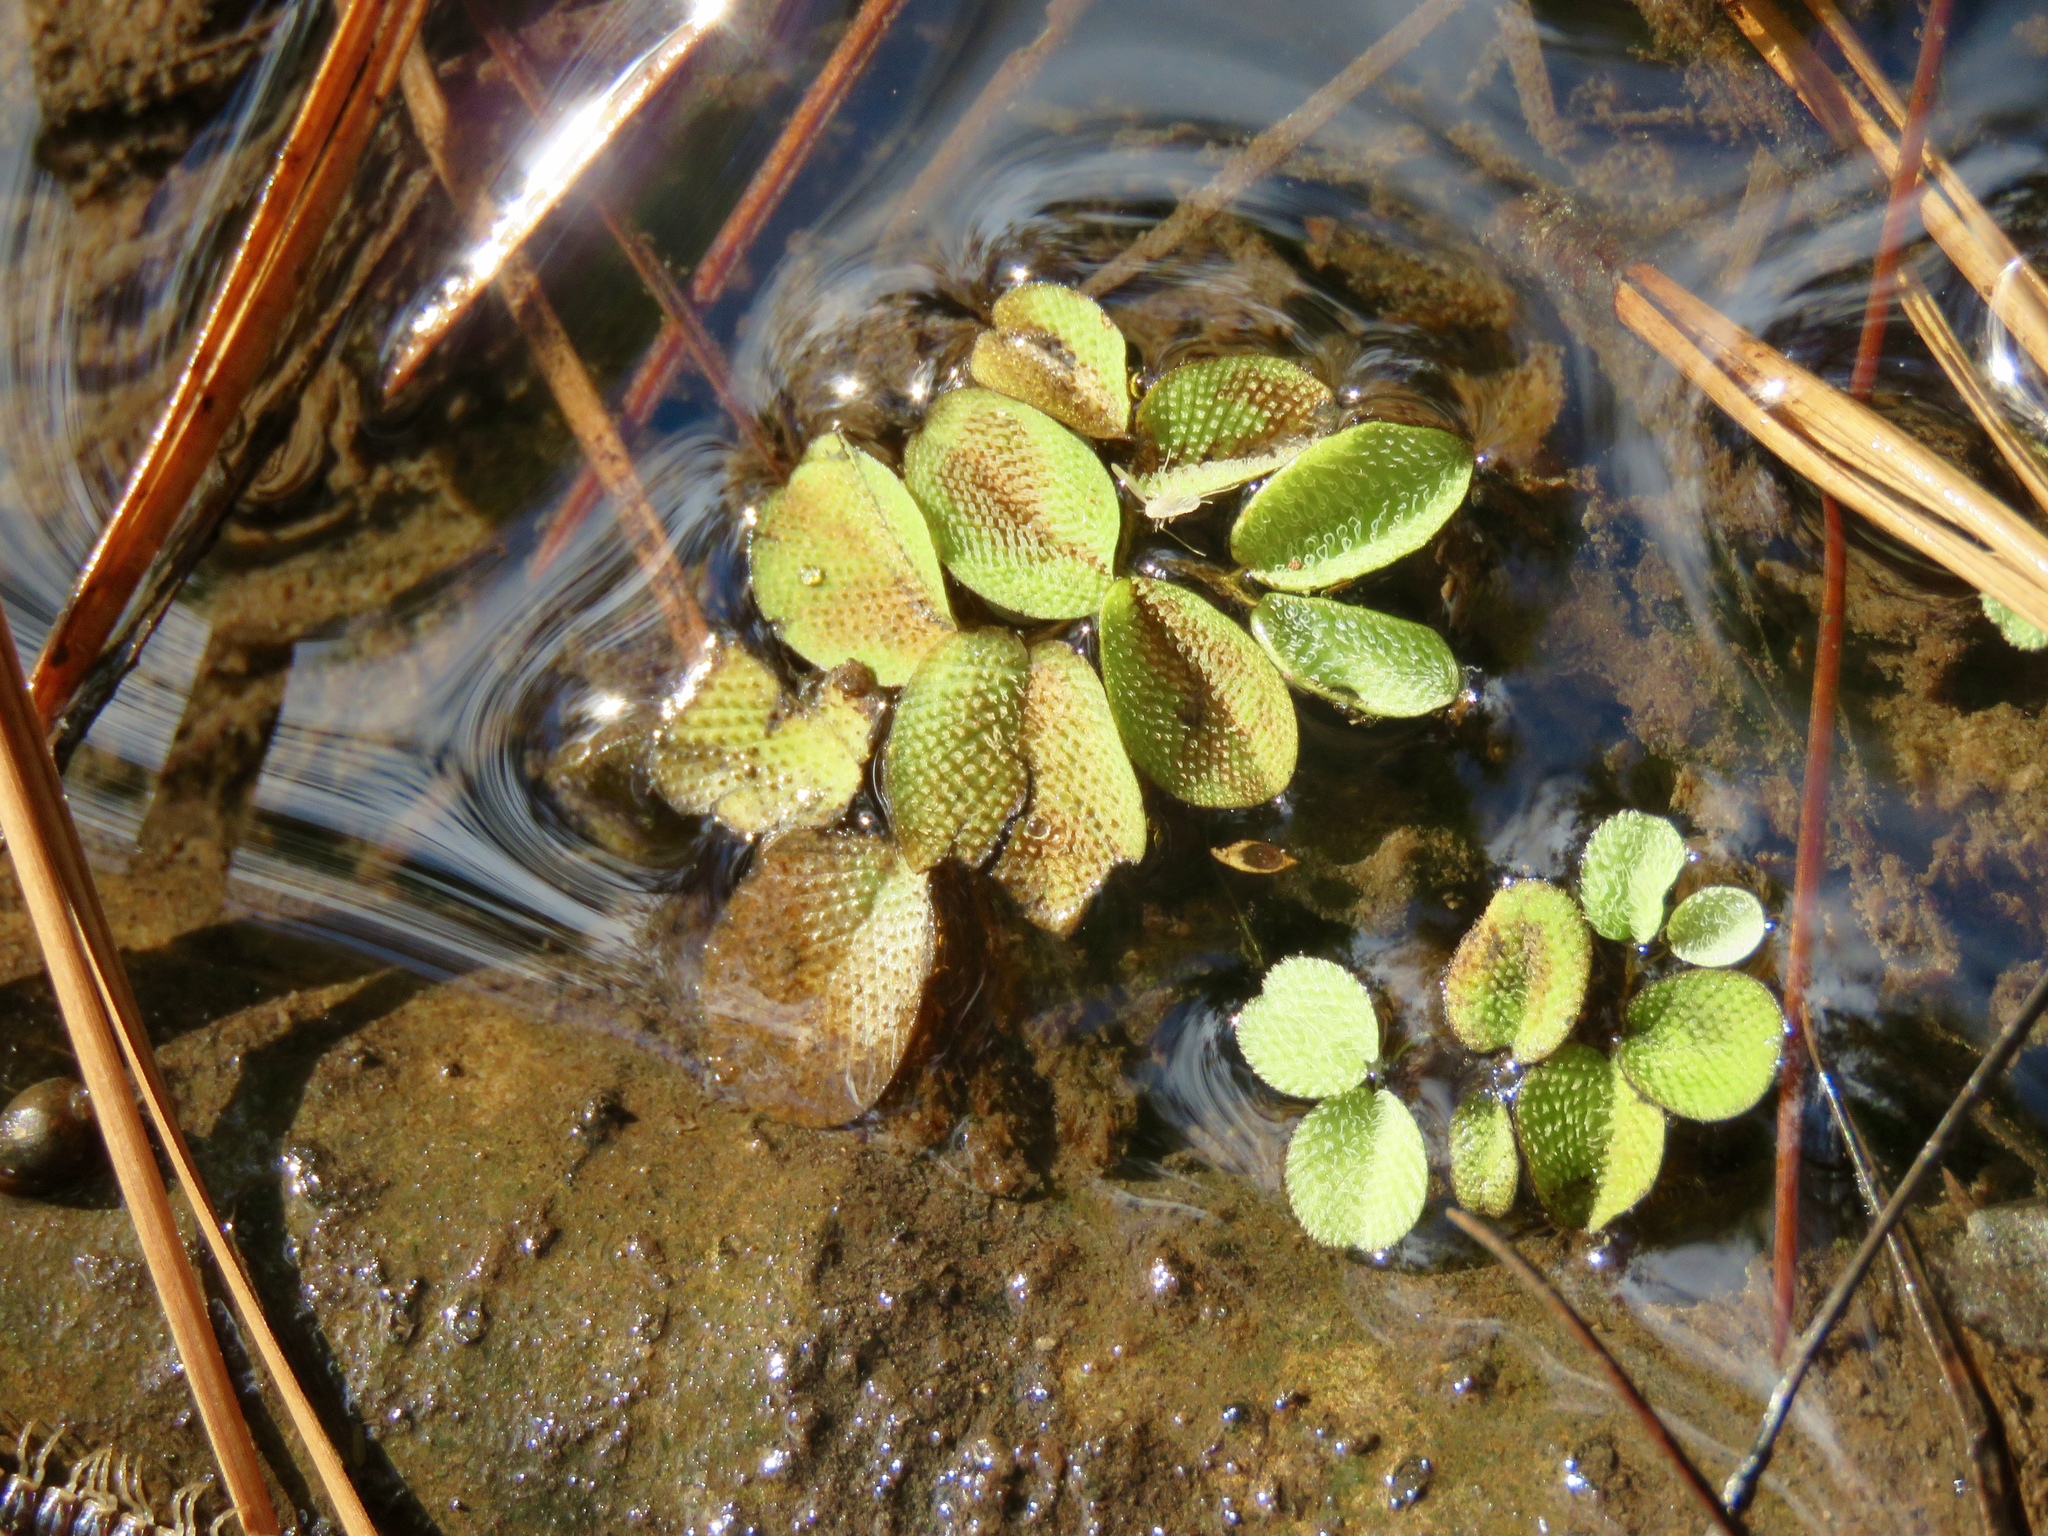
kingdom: Plantae
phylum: Tracheophyta
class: Polypodiopsida
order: Salviniales
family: Salviniaceae
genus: Salvinia
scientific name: Salvinia minima
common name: Water spangles
